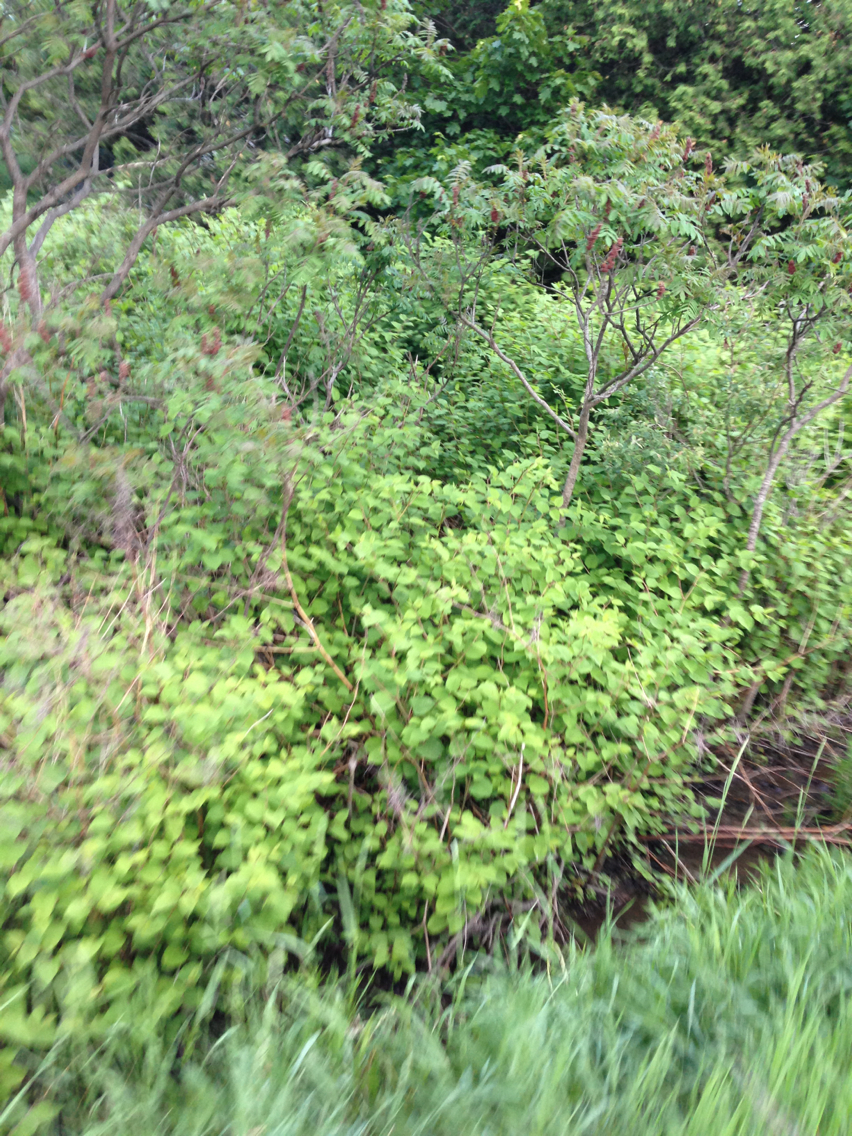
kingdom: Plantae
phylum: Tracheophyta
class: Magnoliopsida
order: Caryophyllales
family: Polygonaceae
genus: Reynoutria
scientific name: Reynoutria japonica
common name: Japanese knotweed
